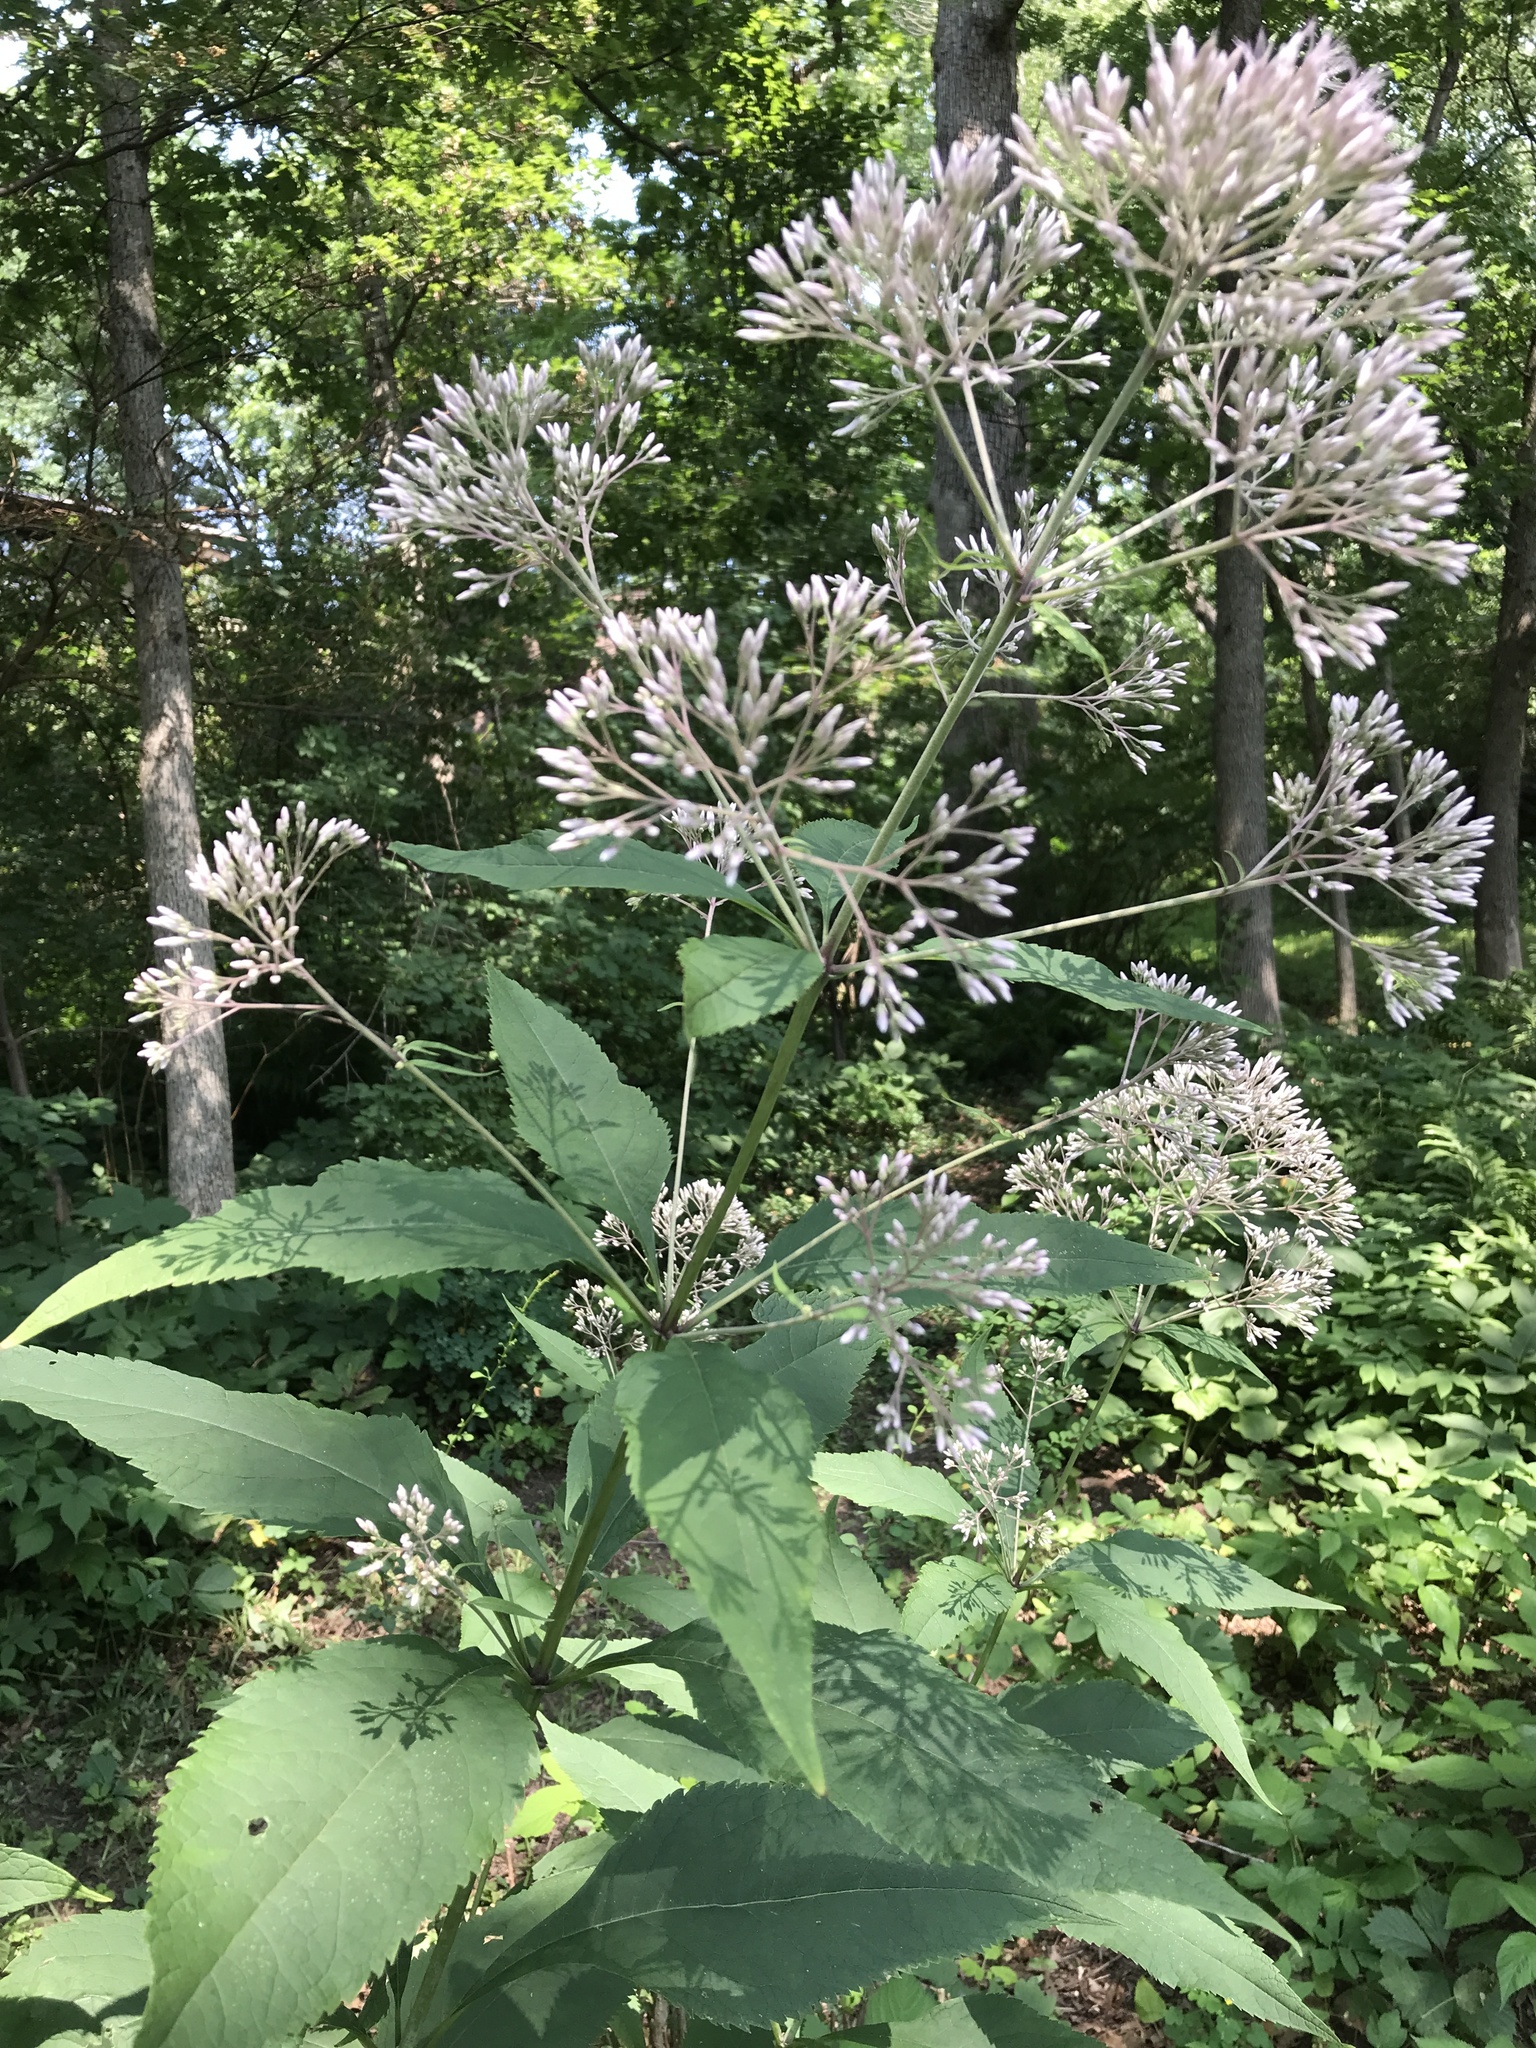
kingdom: Plantae
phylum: Tracheophyta
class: Magnoliopsida
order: Asterales
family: Asteraceae
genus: Eutrochium
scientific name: Eutrochium purpureum
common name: Gravelroot
